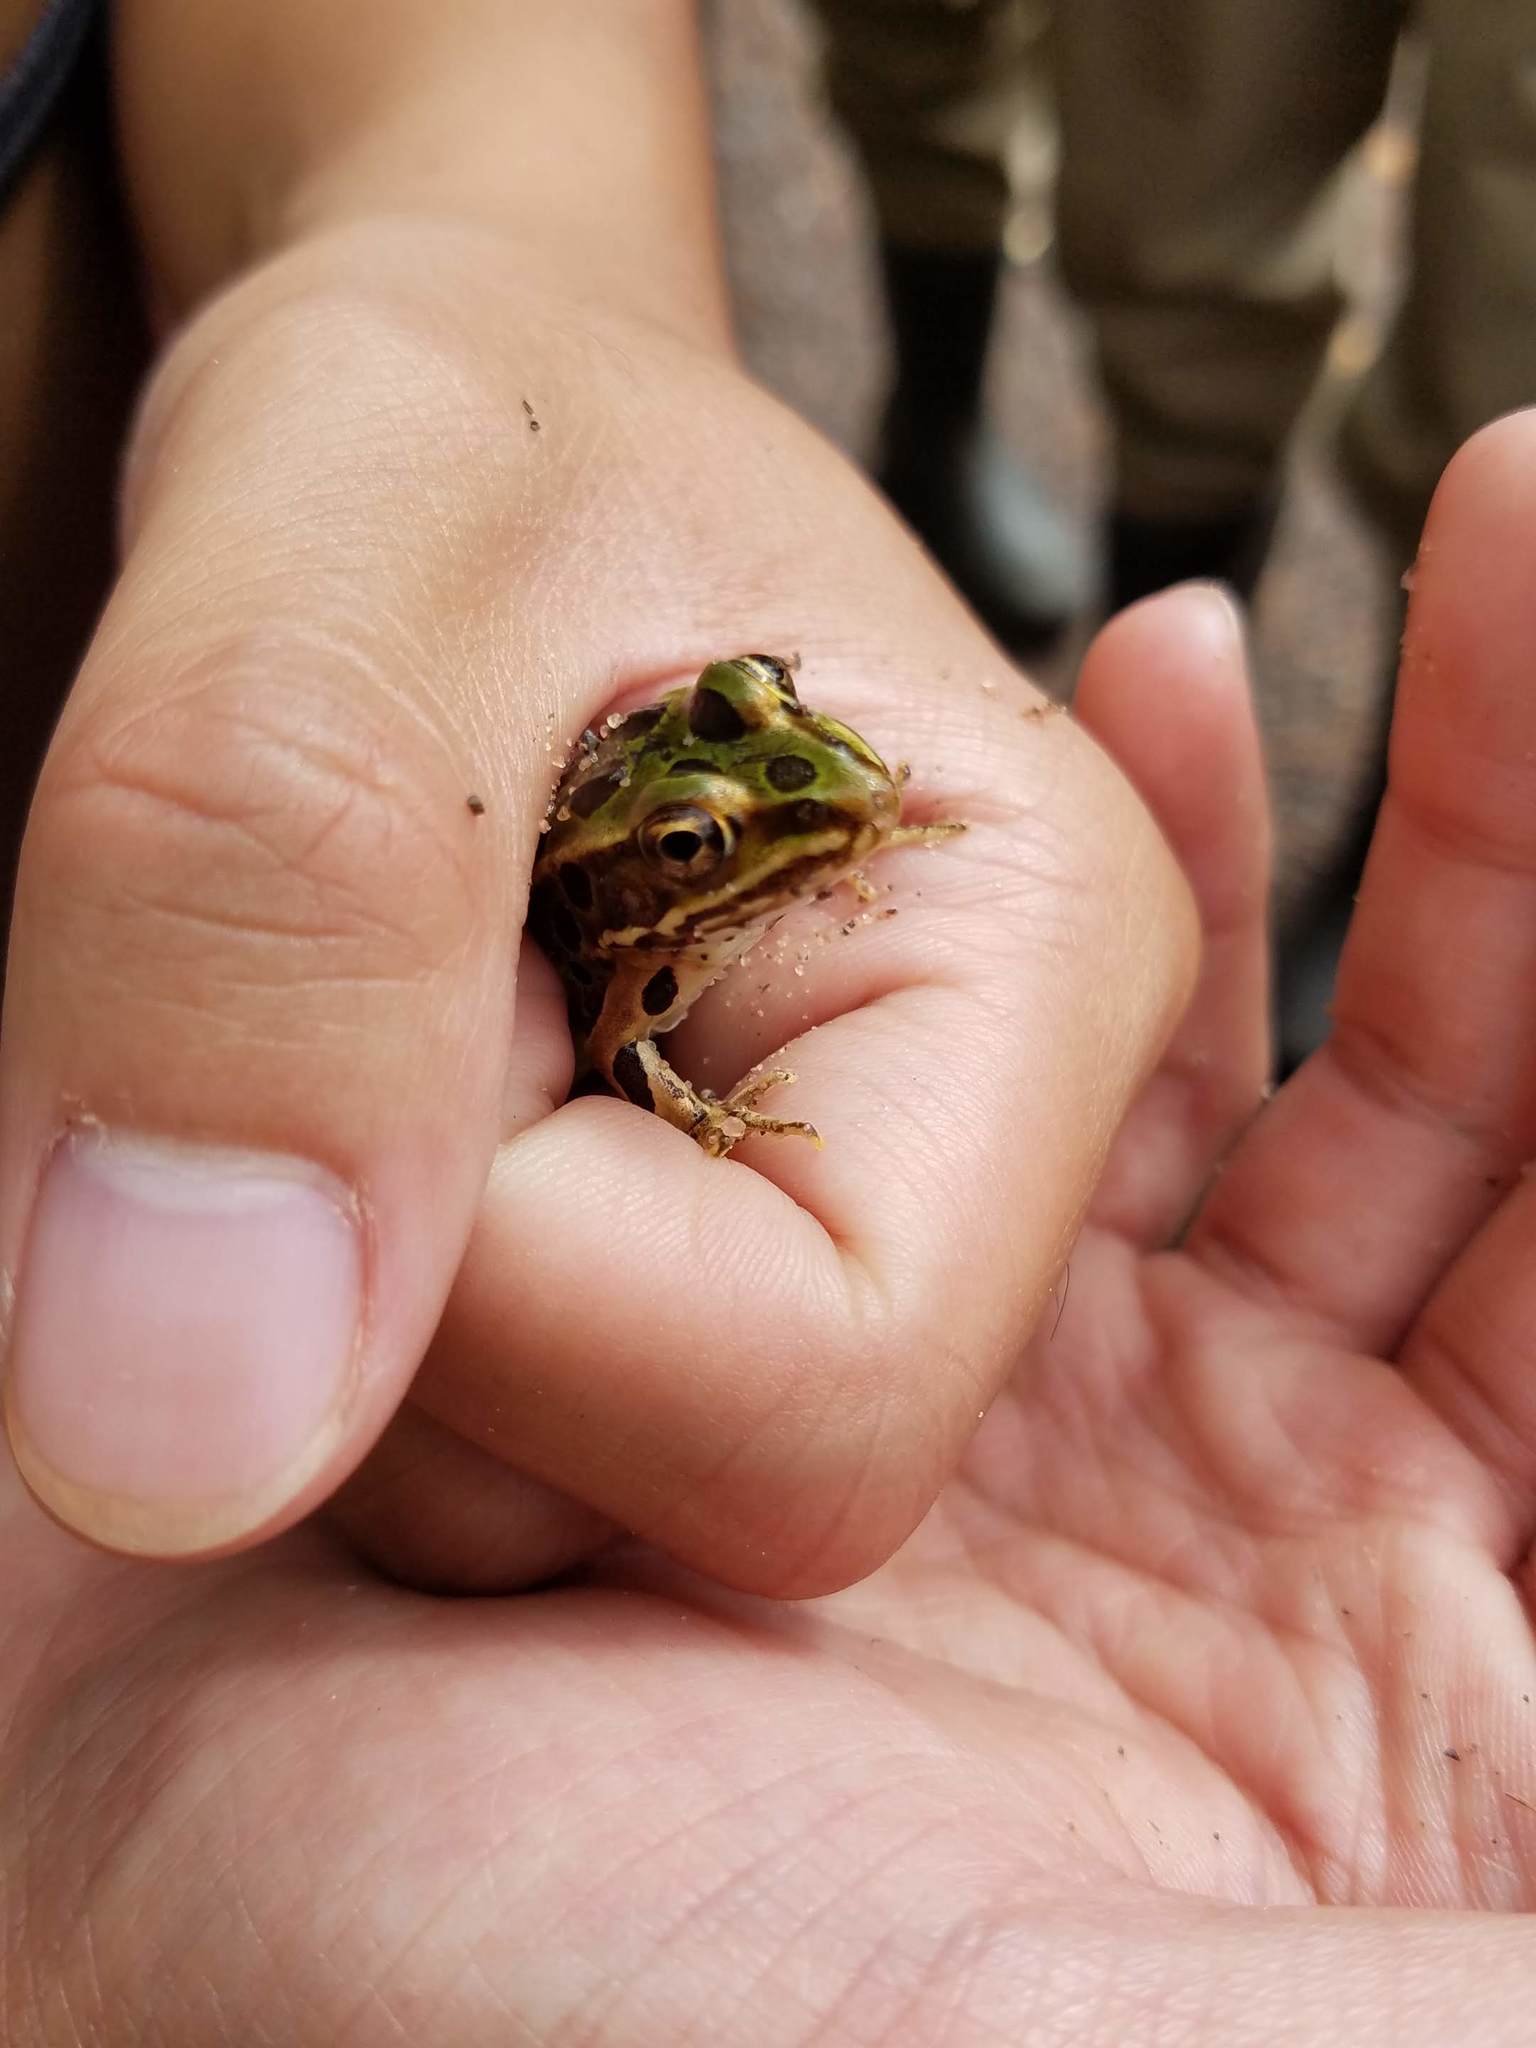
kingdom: Animalia
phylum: Chordata
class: Amphibia
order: Anura
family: Ranidae
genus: Lithobates
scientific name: Lithobates pipiens
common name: Northern leopard frog
